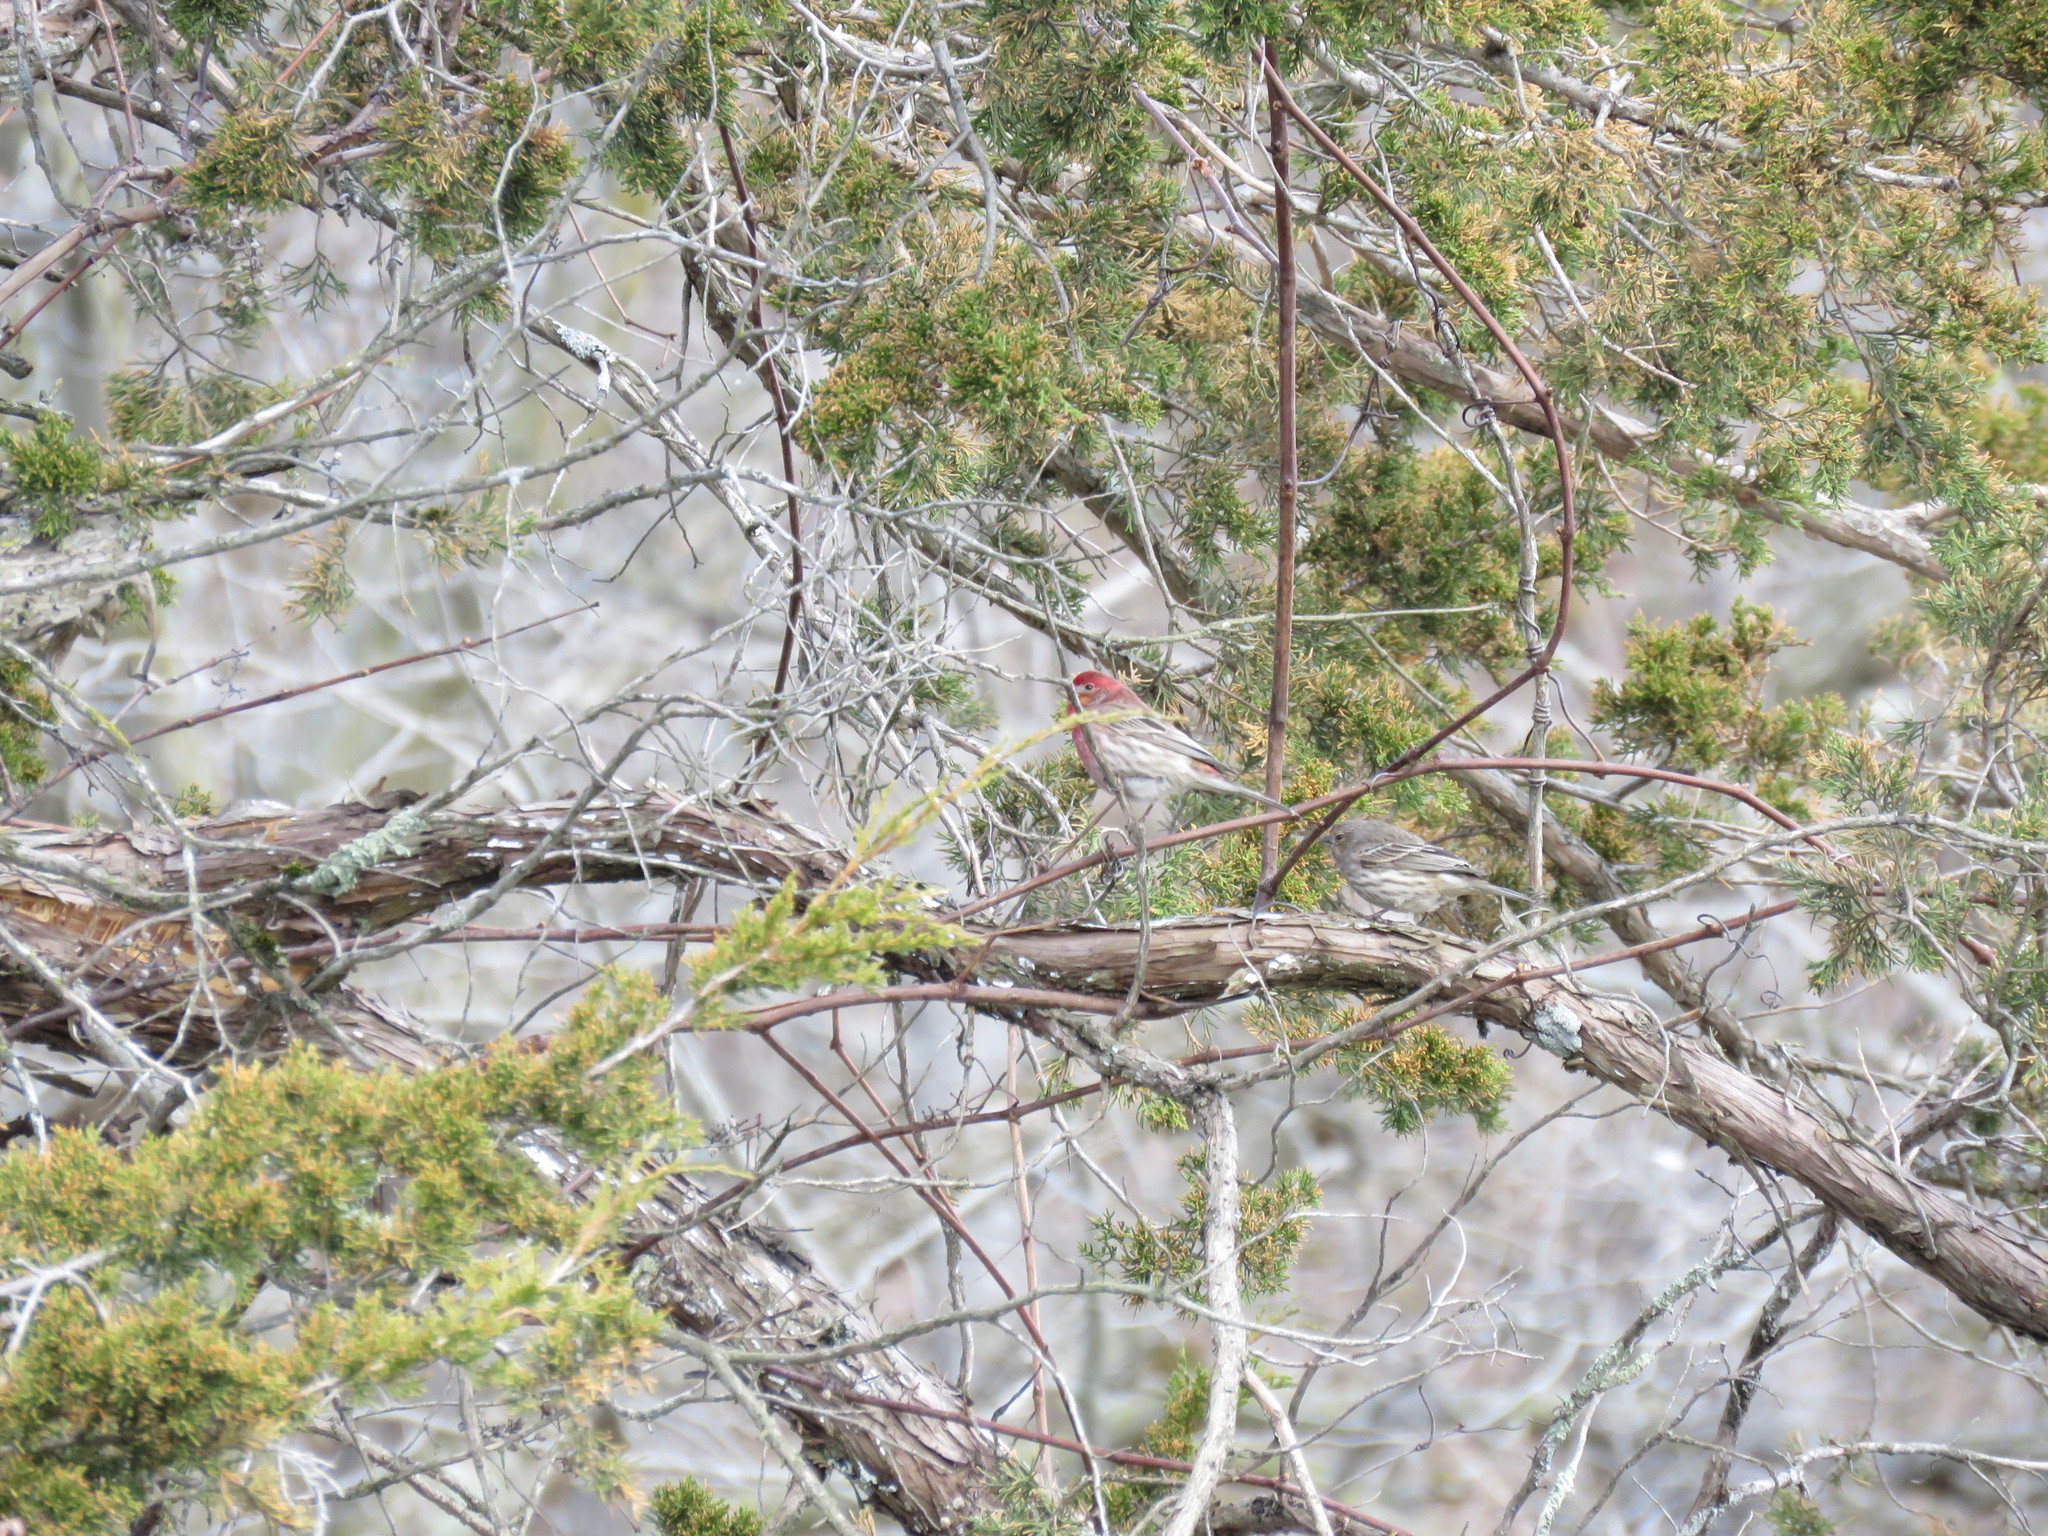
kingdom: Animalia
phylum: Chordata
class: Aves
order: Passeriformes
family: Fringillidae
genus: Haemorhous
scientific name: Haemorhous mexicanus
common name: House finch
